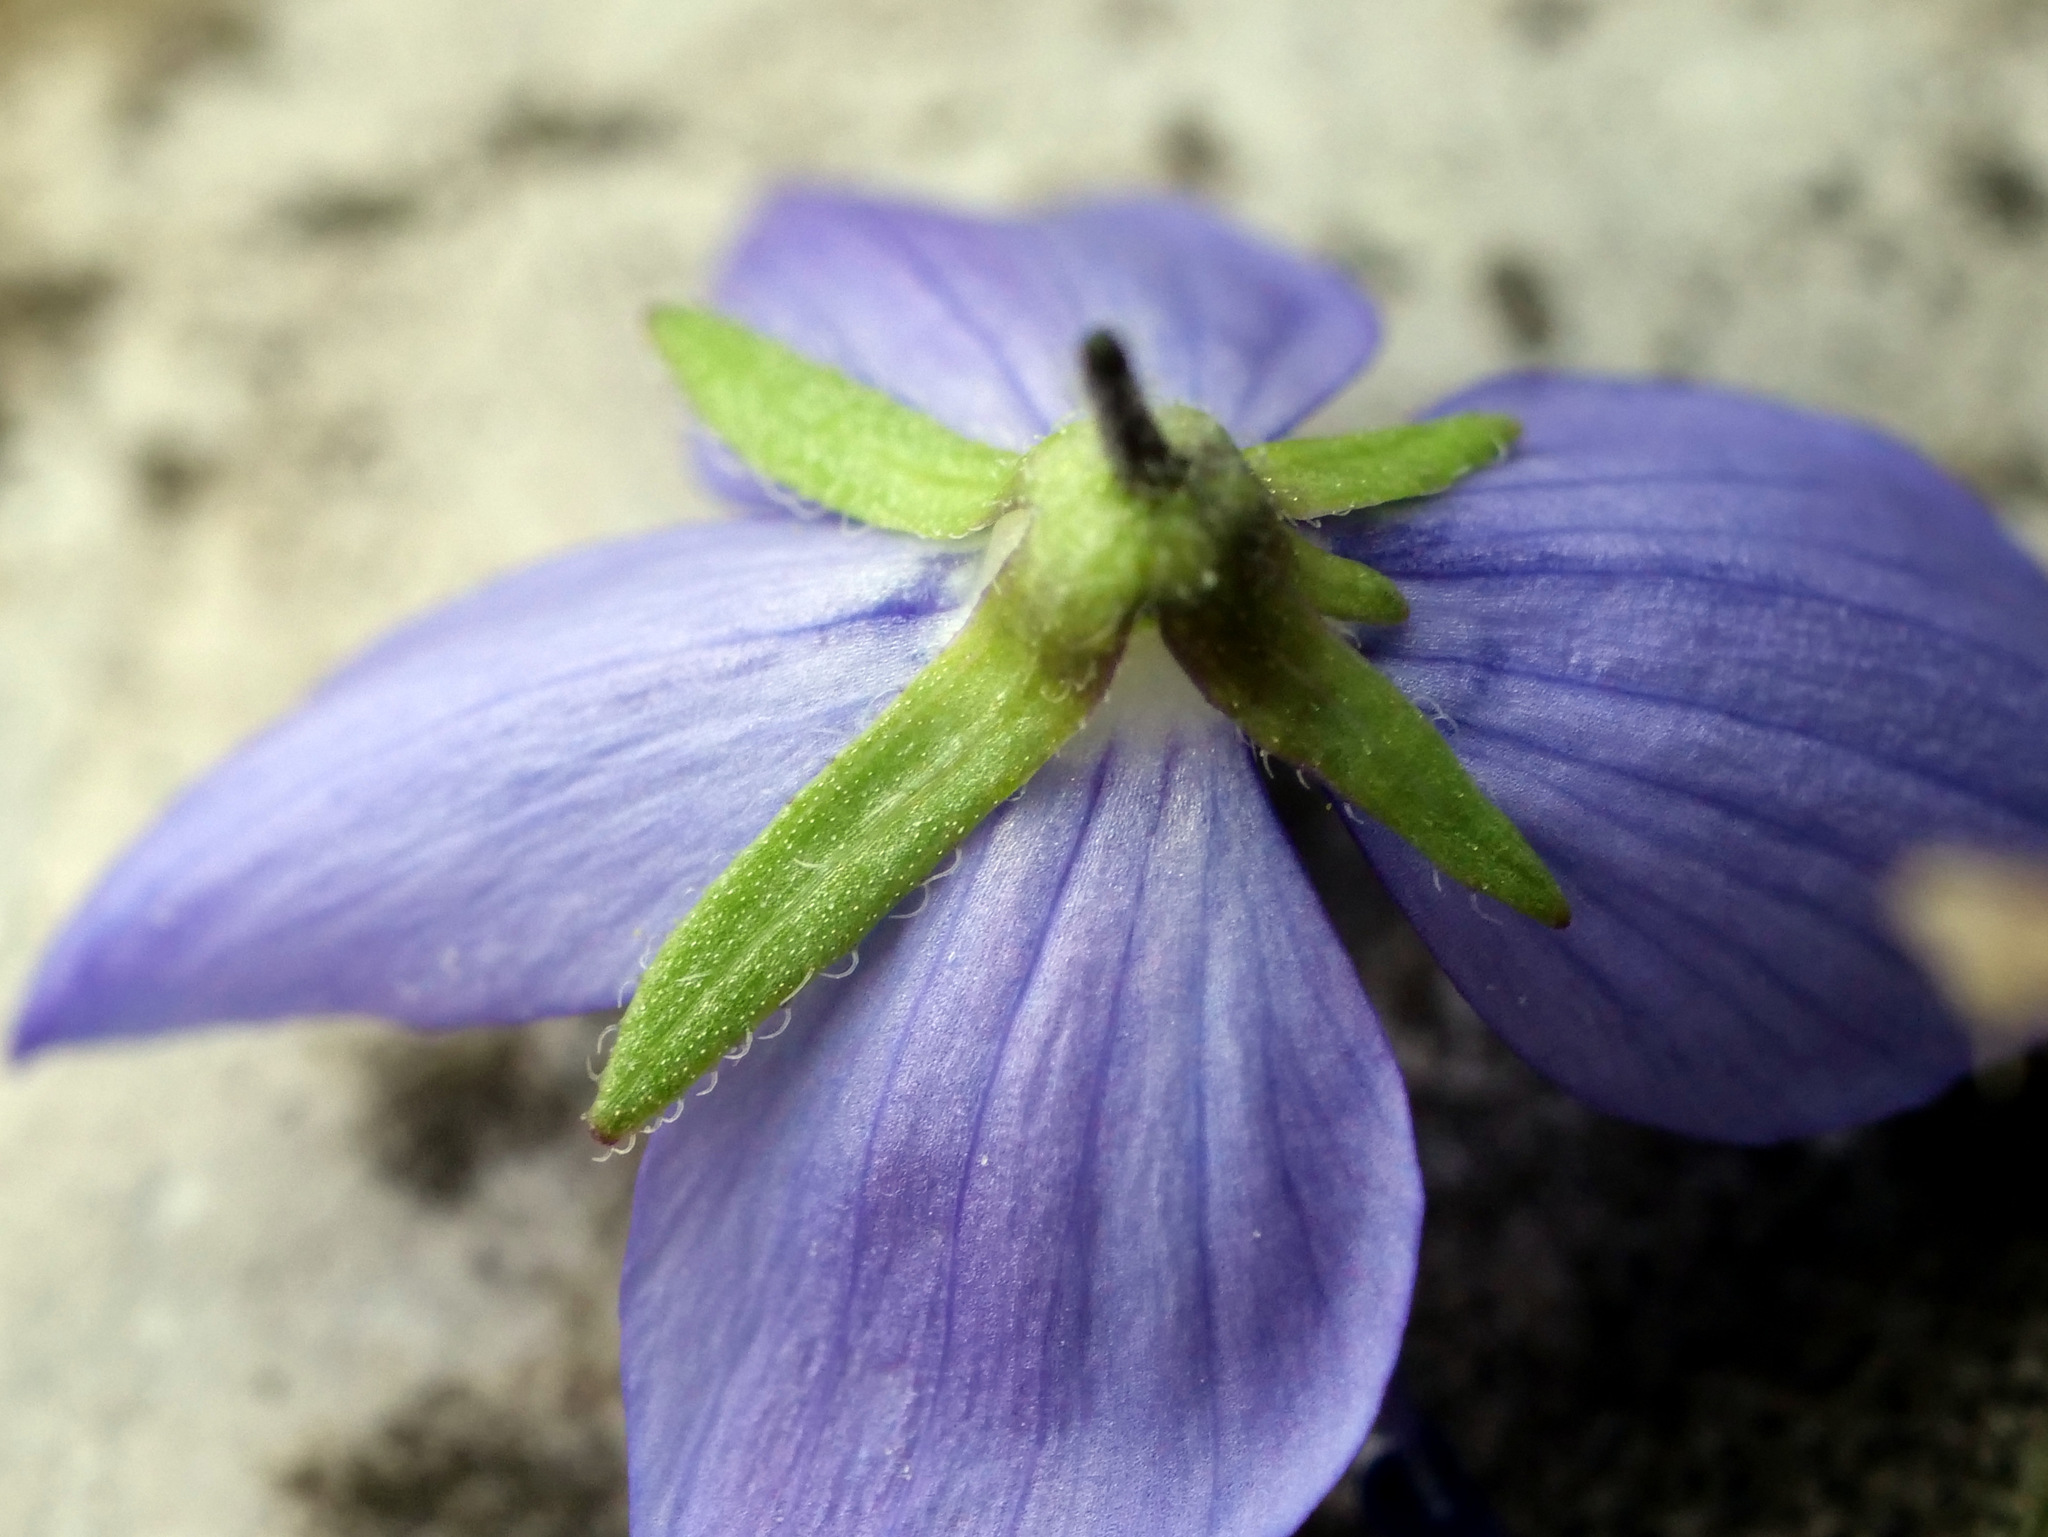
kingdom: Plantae
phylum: Tracheophyta
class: Magnoliopsida
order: Lamiales
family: Plantaginaceae
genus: Veronica
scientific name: Veronica teucrium
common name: Large speedwell
